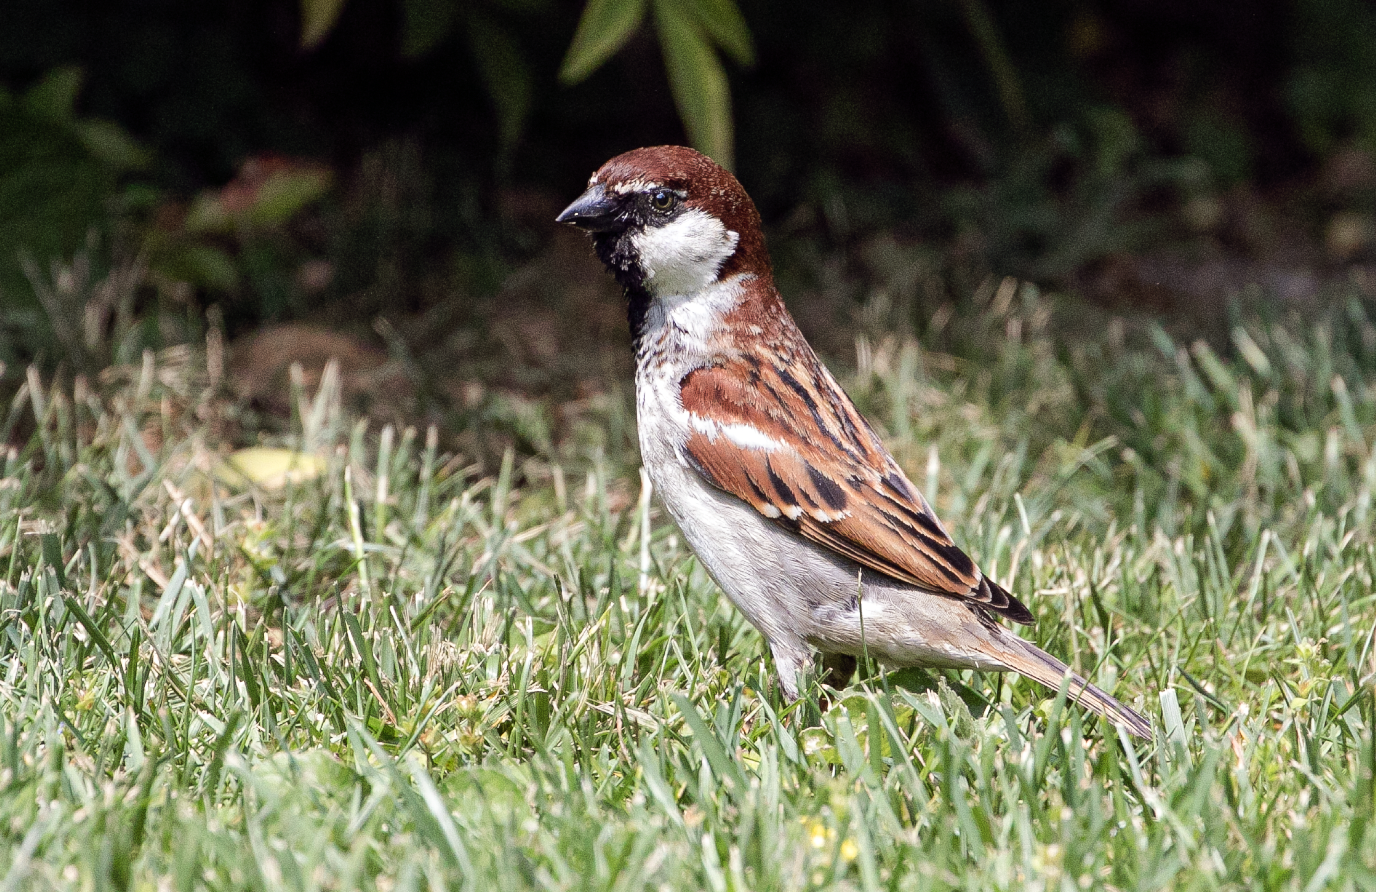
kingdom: Animalia
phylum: Chordata
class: Aves
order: Passeriformes
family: Passeridae
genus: Passer
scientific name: Passer italiae
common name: Italian sparrow
